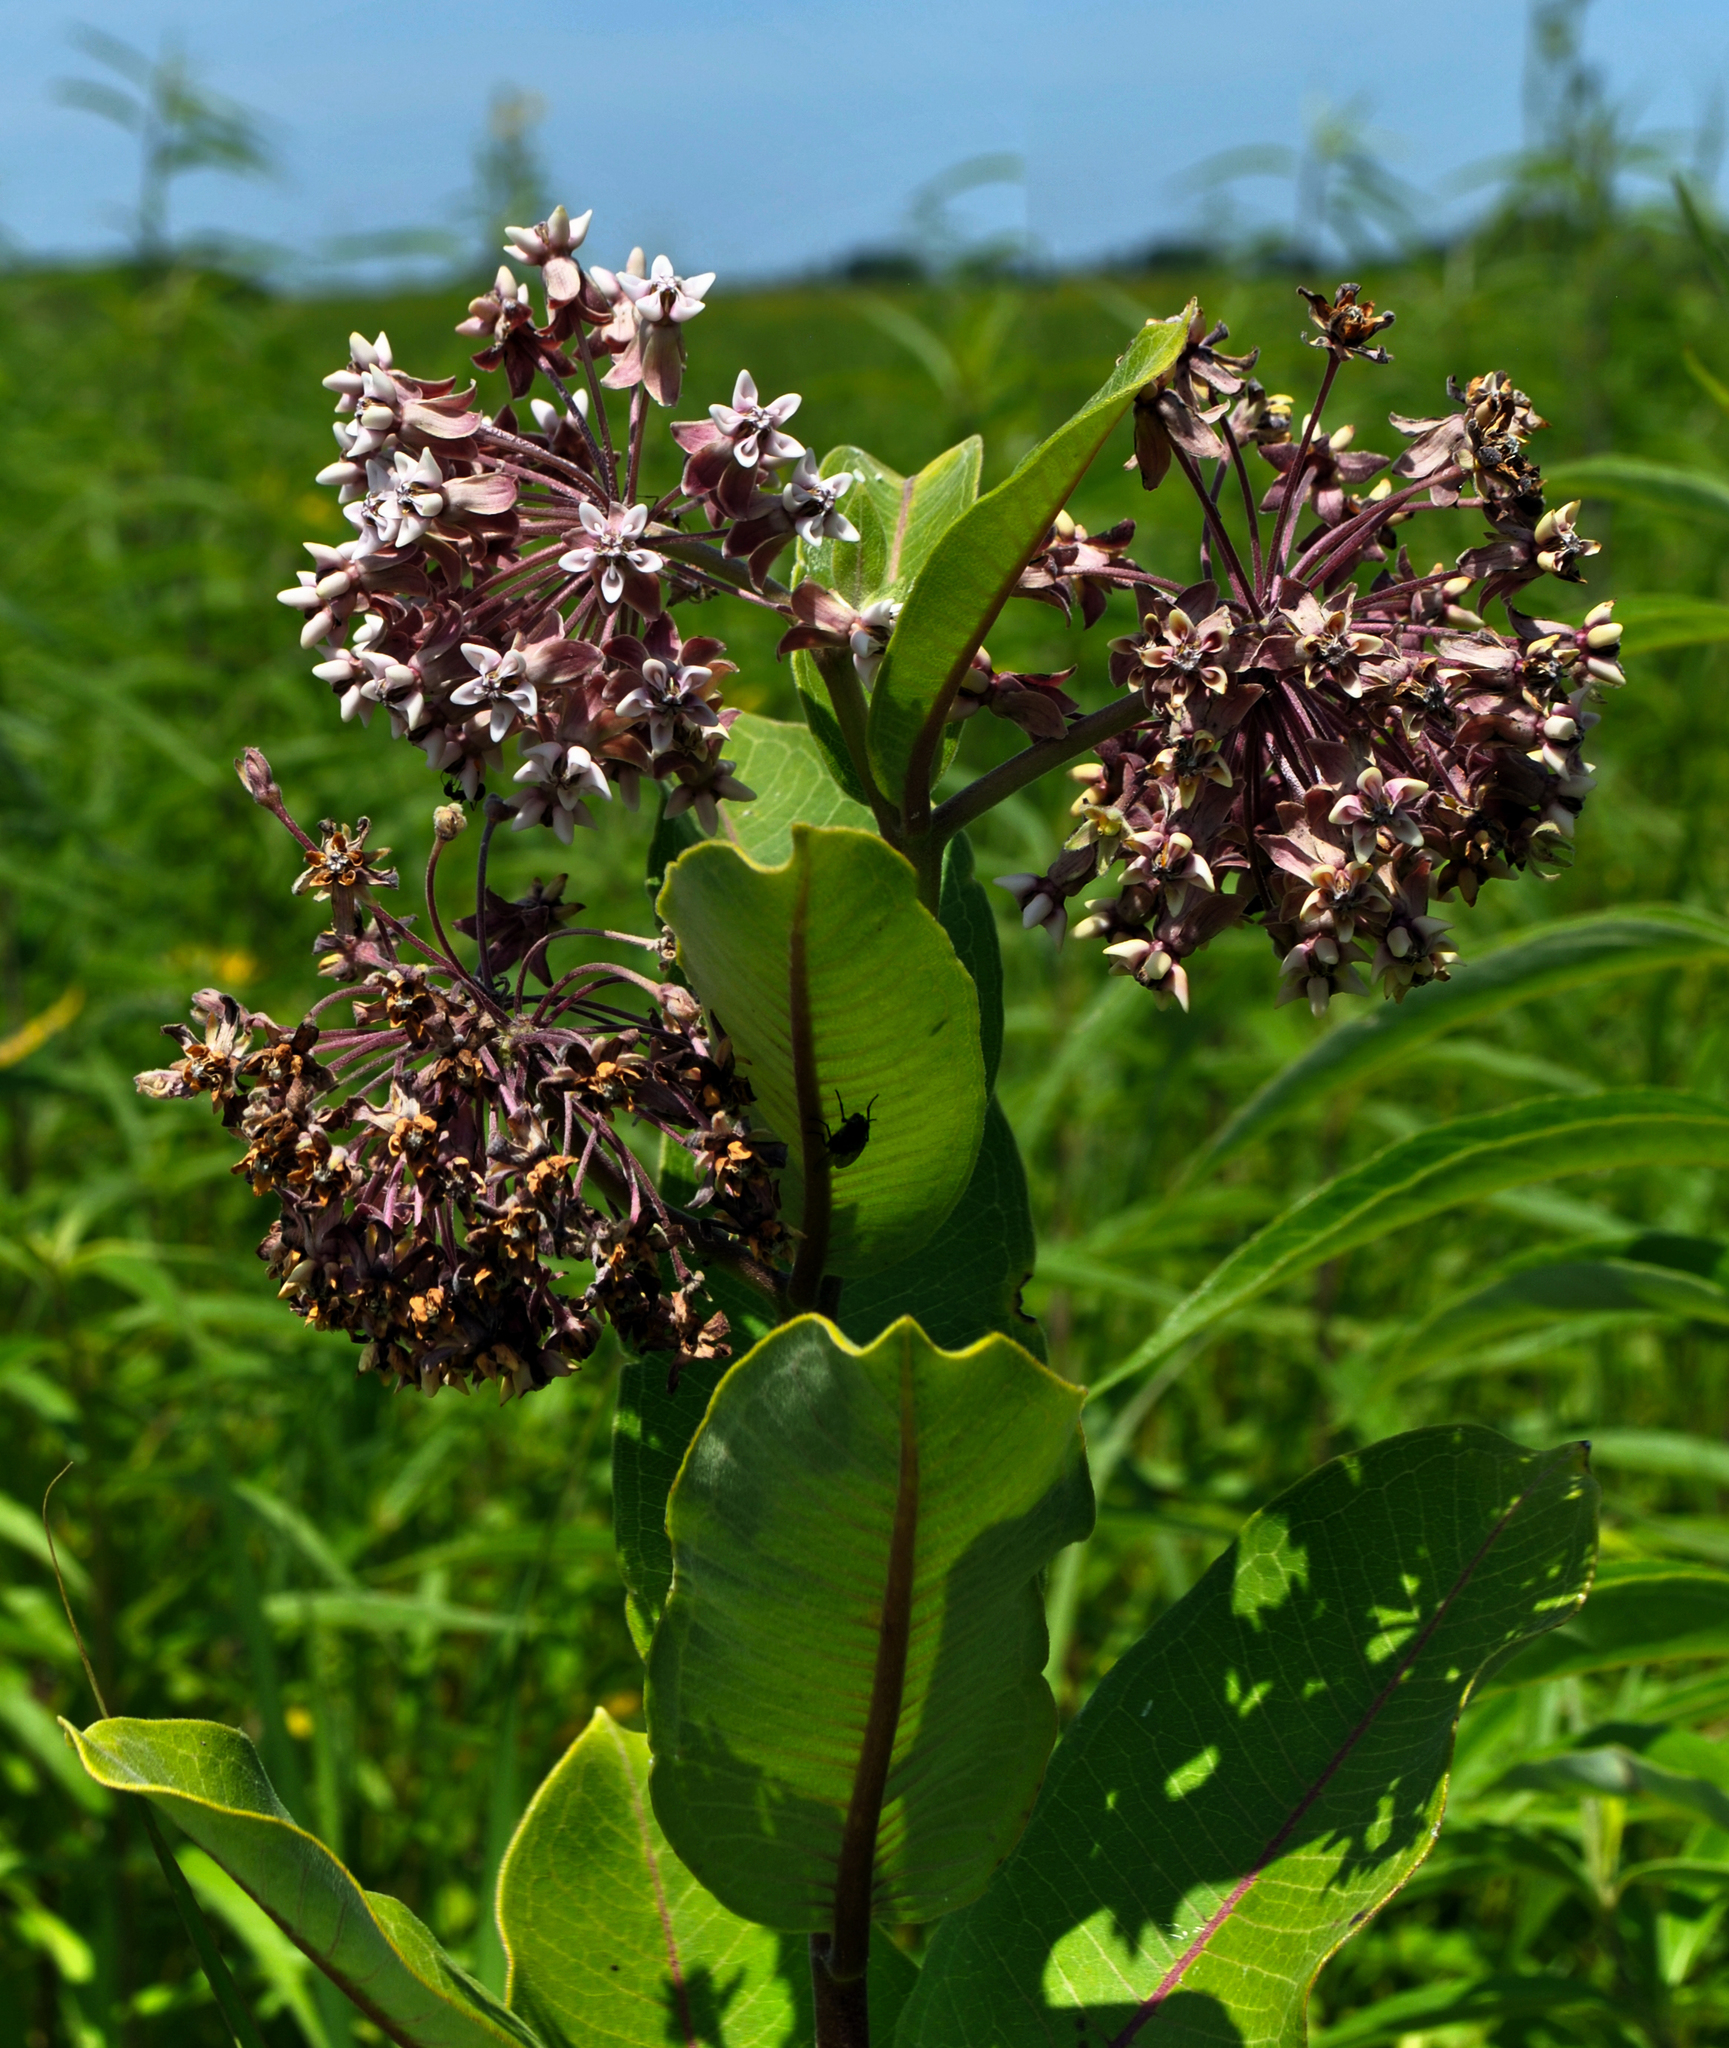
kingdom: Plantae
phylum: Tracheophyta
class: Magnoliopsida
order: Gentianales
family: Apocynaceae
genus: Asclepias
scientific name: Asclepias syriaca
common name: Common milkweed
